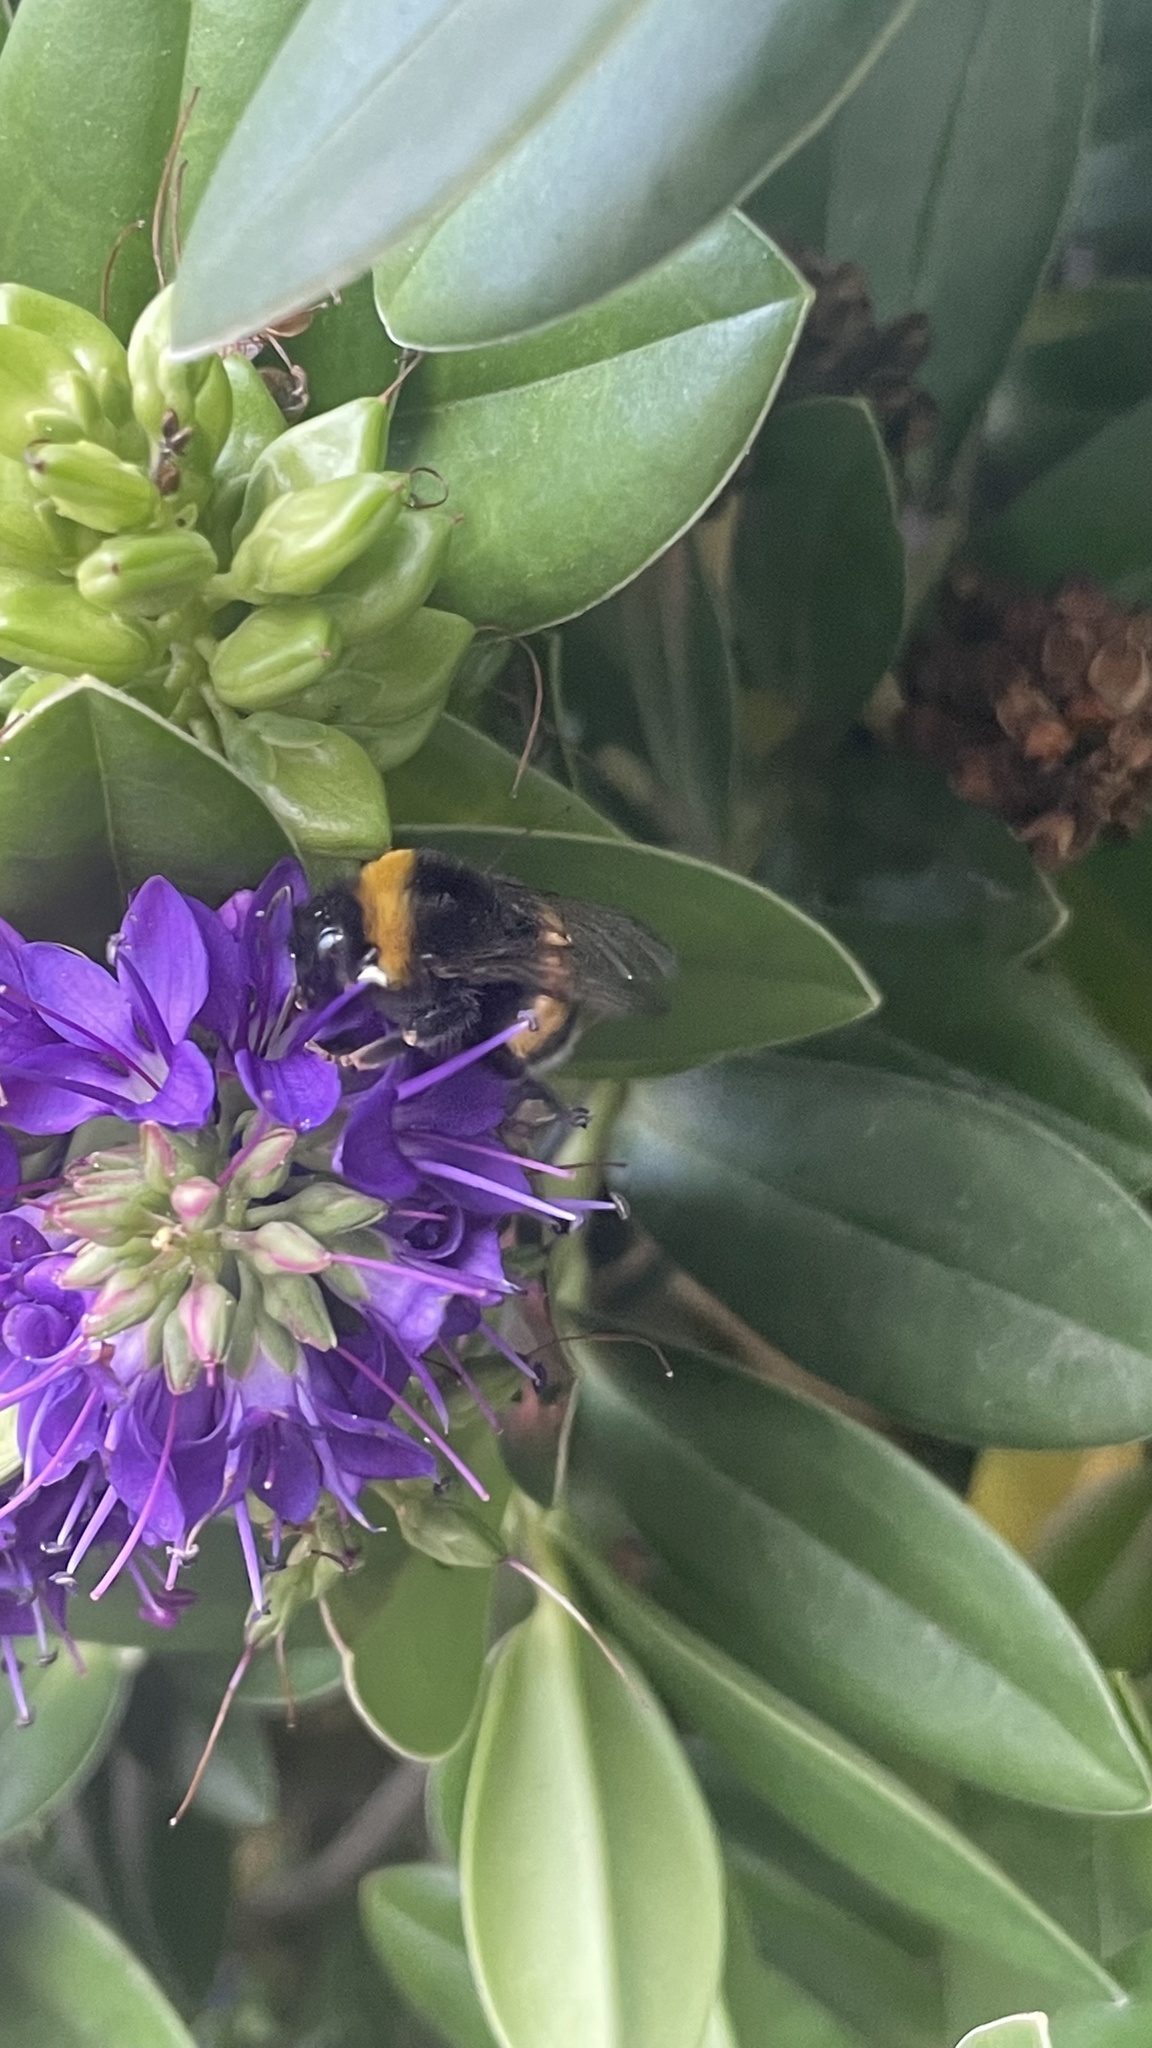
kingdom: Animalia
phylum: Arthropoda
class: Insecta
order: Hymenoptera
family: Apidae
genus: Bombus
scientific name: Bombus terrestris
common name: Buff-tailed bumblebee
